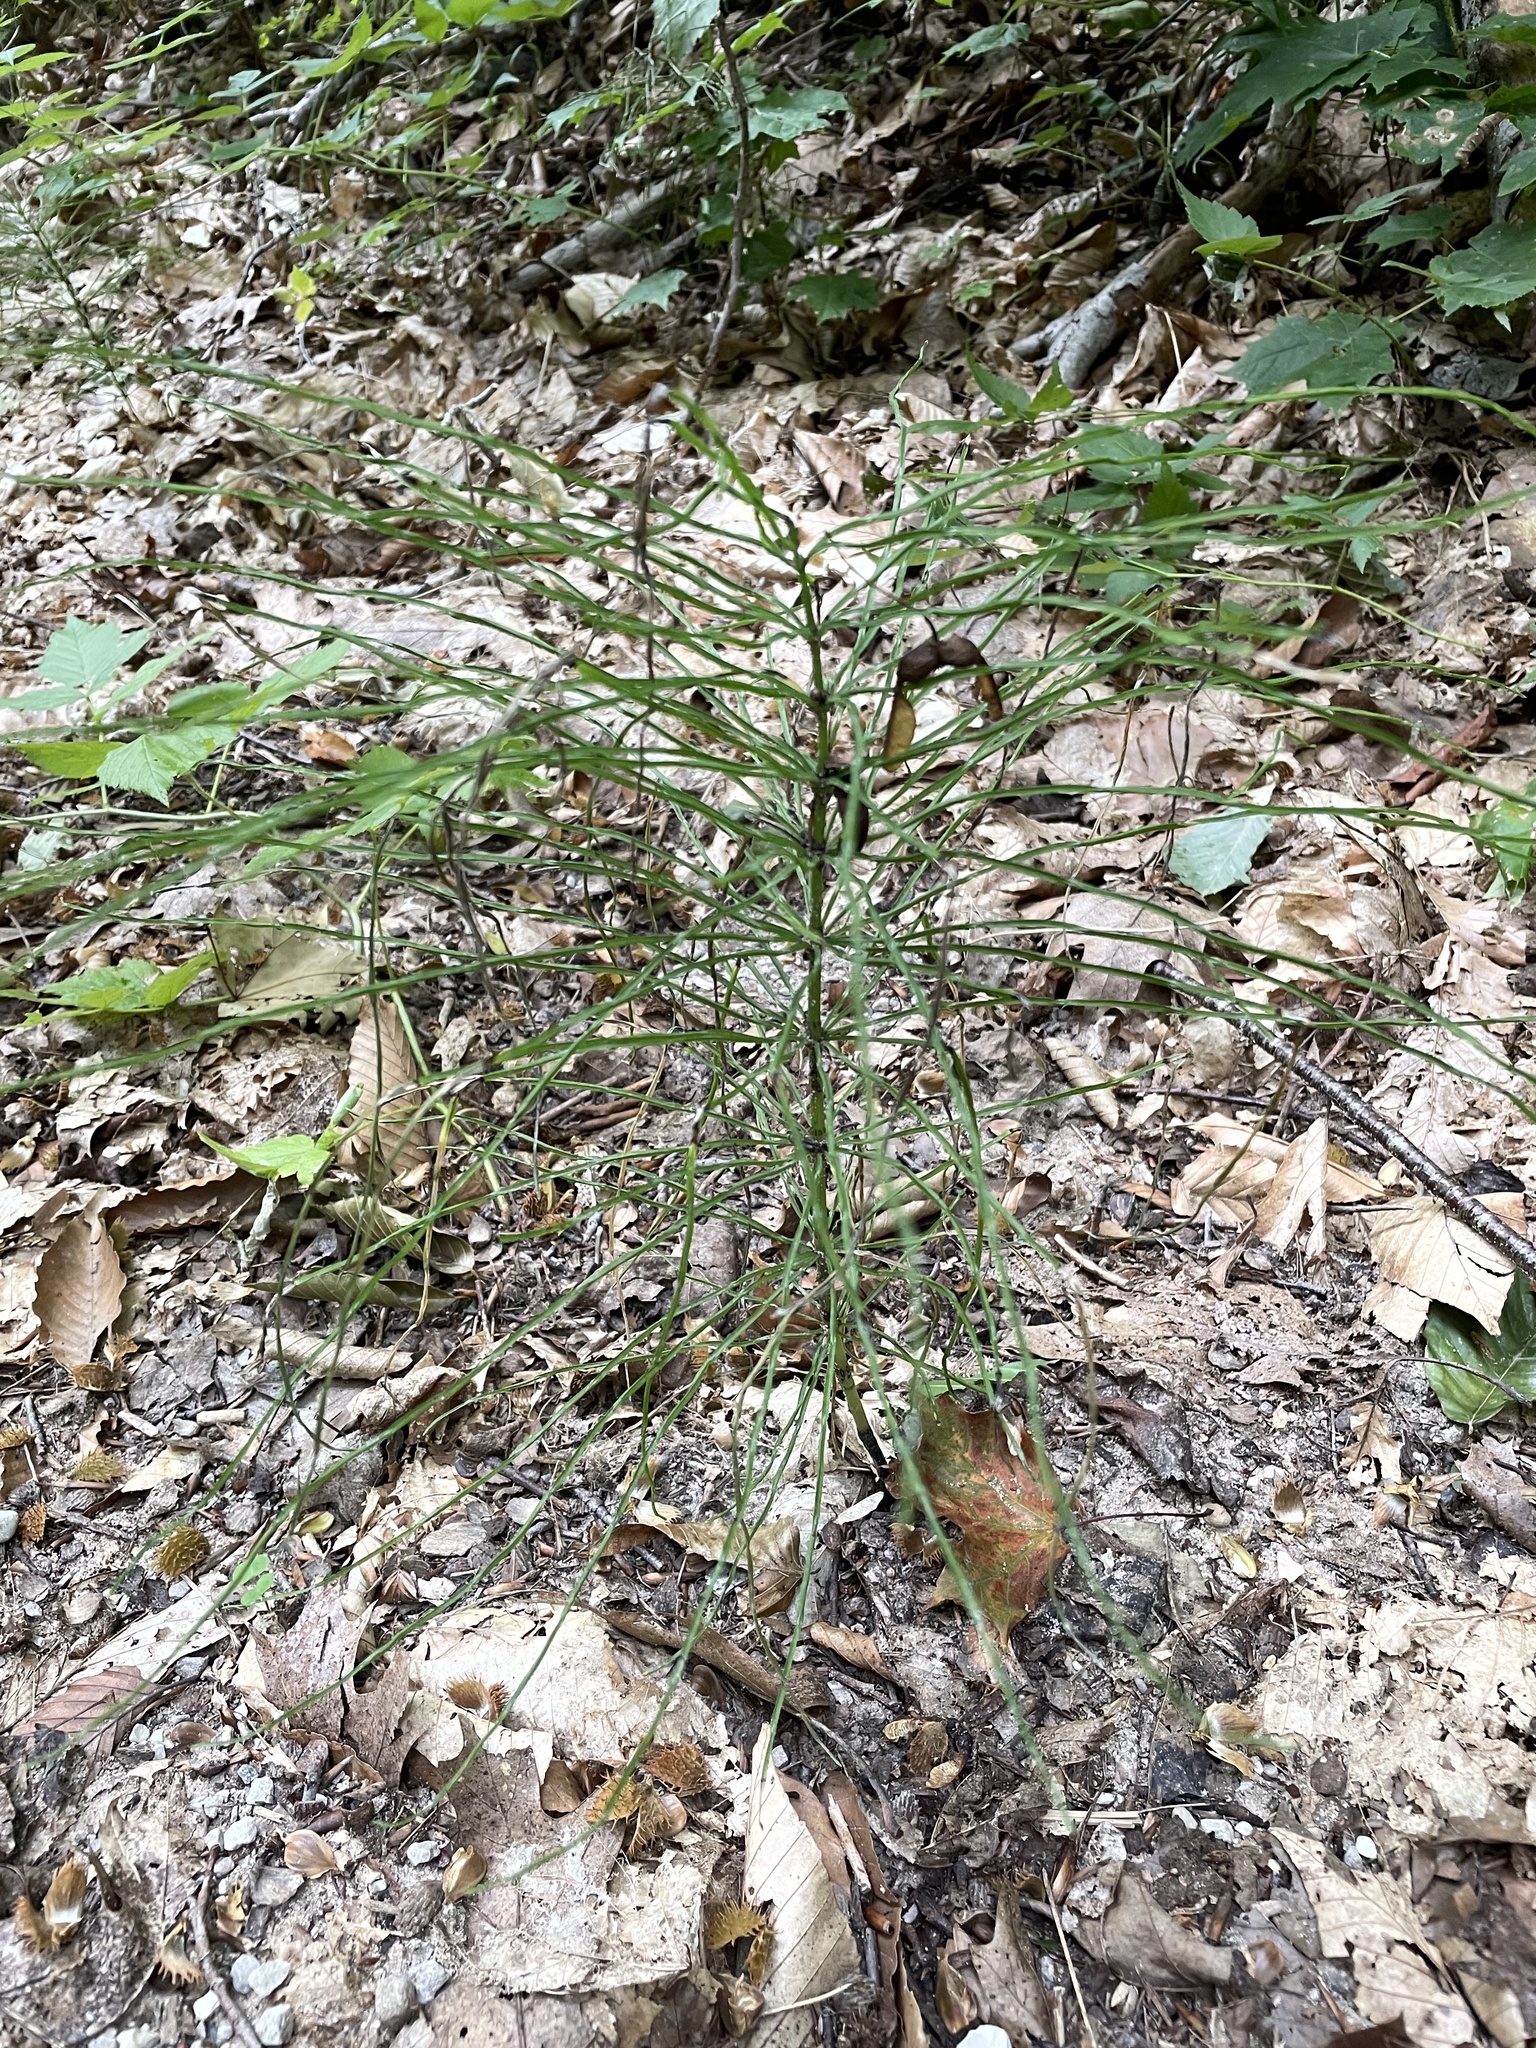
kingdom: Plantae
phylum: Tracheophyta
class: Polypodiopsida
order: Equisetales
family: Equisetaceae
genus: Equisetum
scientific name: Equisetum arvense
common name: Field horsetail
